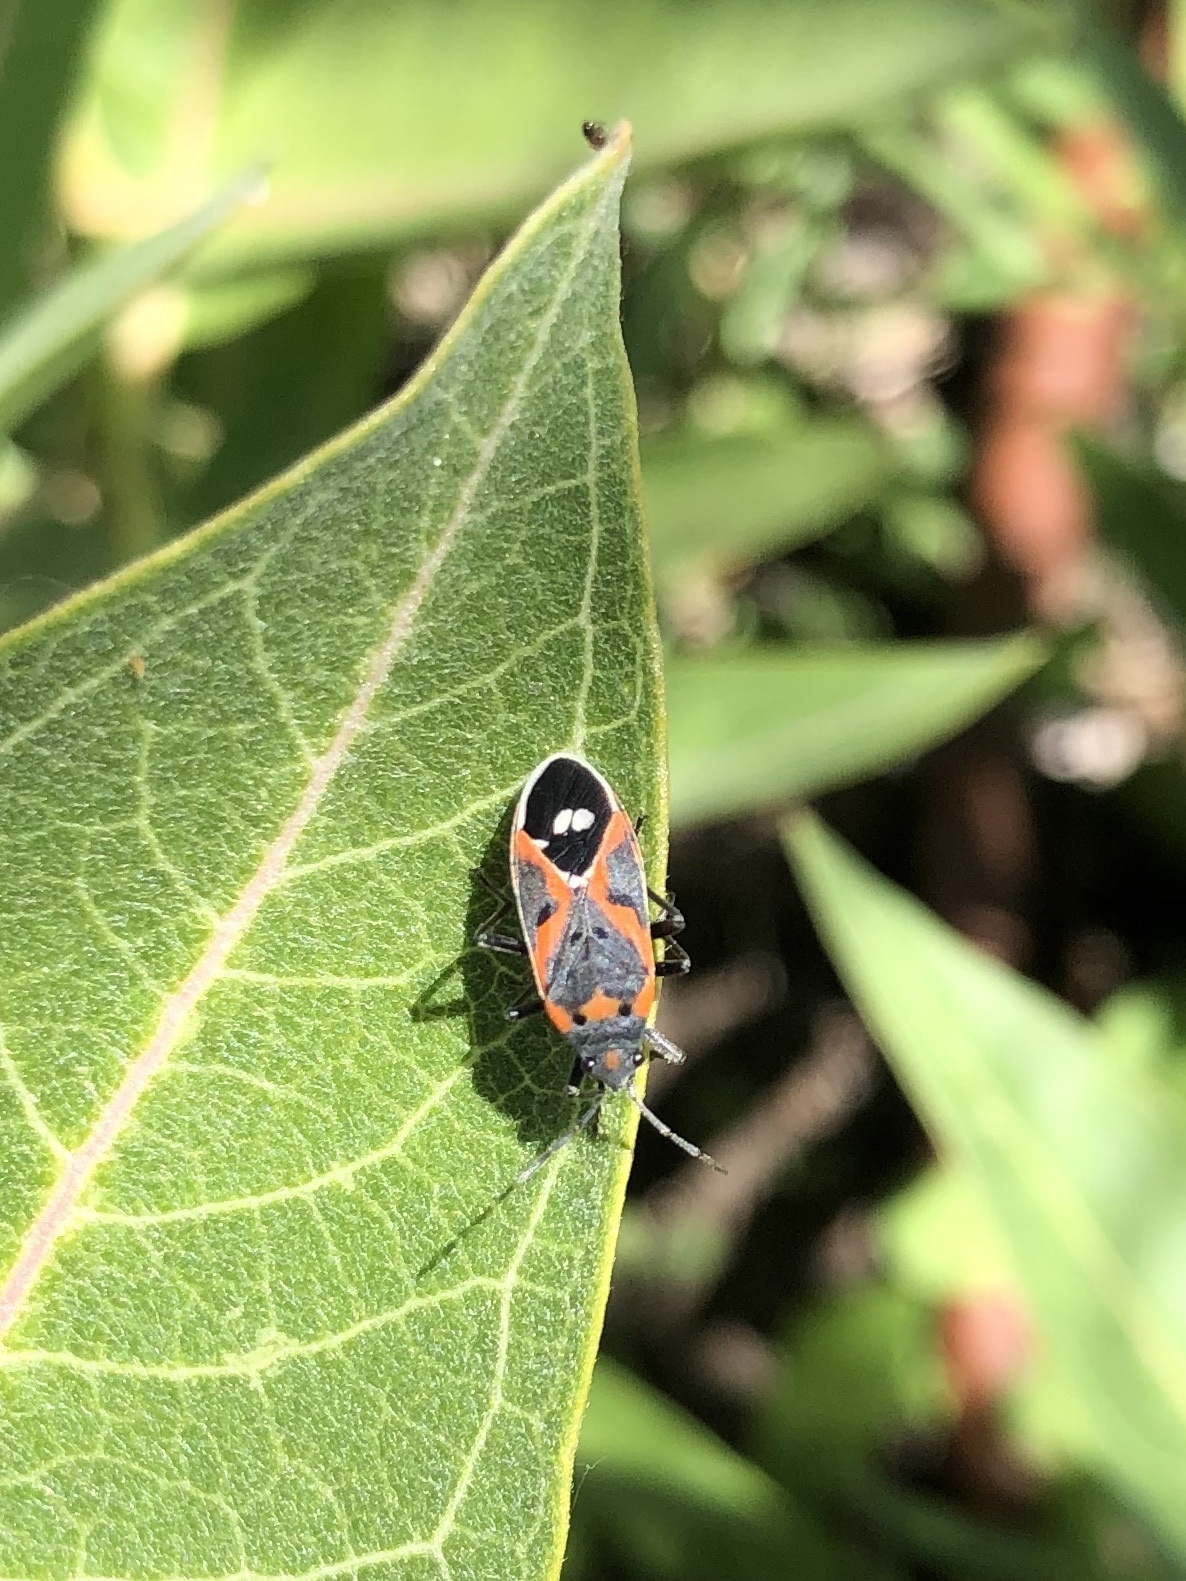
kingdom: Animalia
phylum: Arthropoda
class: Insecta
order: Hemiptera
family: Lygaeidae
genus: Lygaeus
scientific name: Lygaeus kalmii
